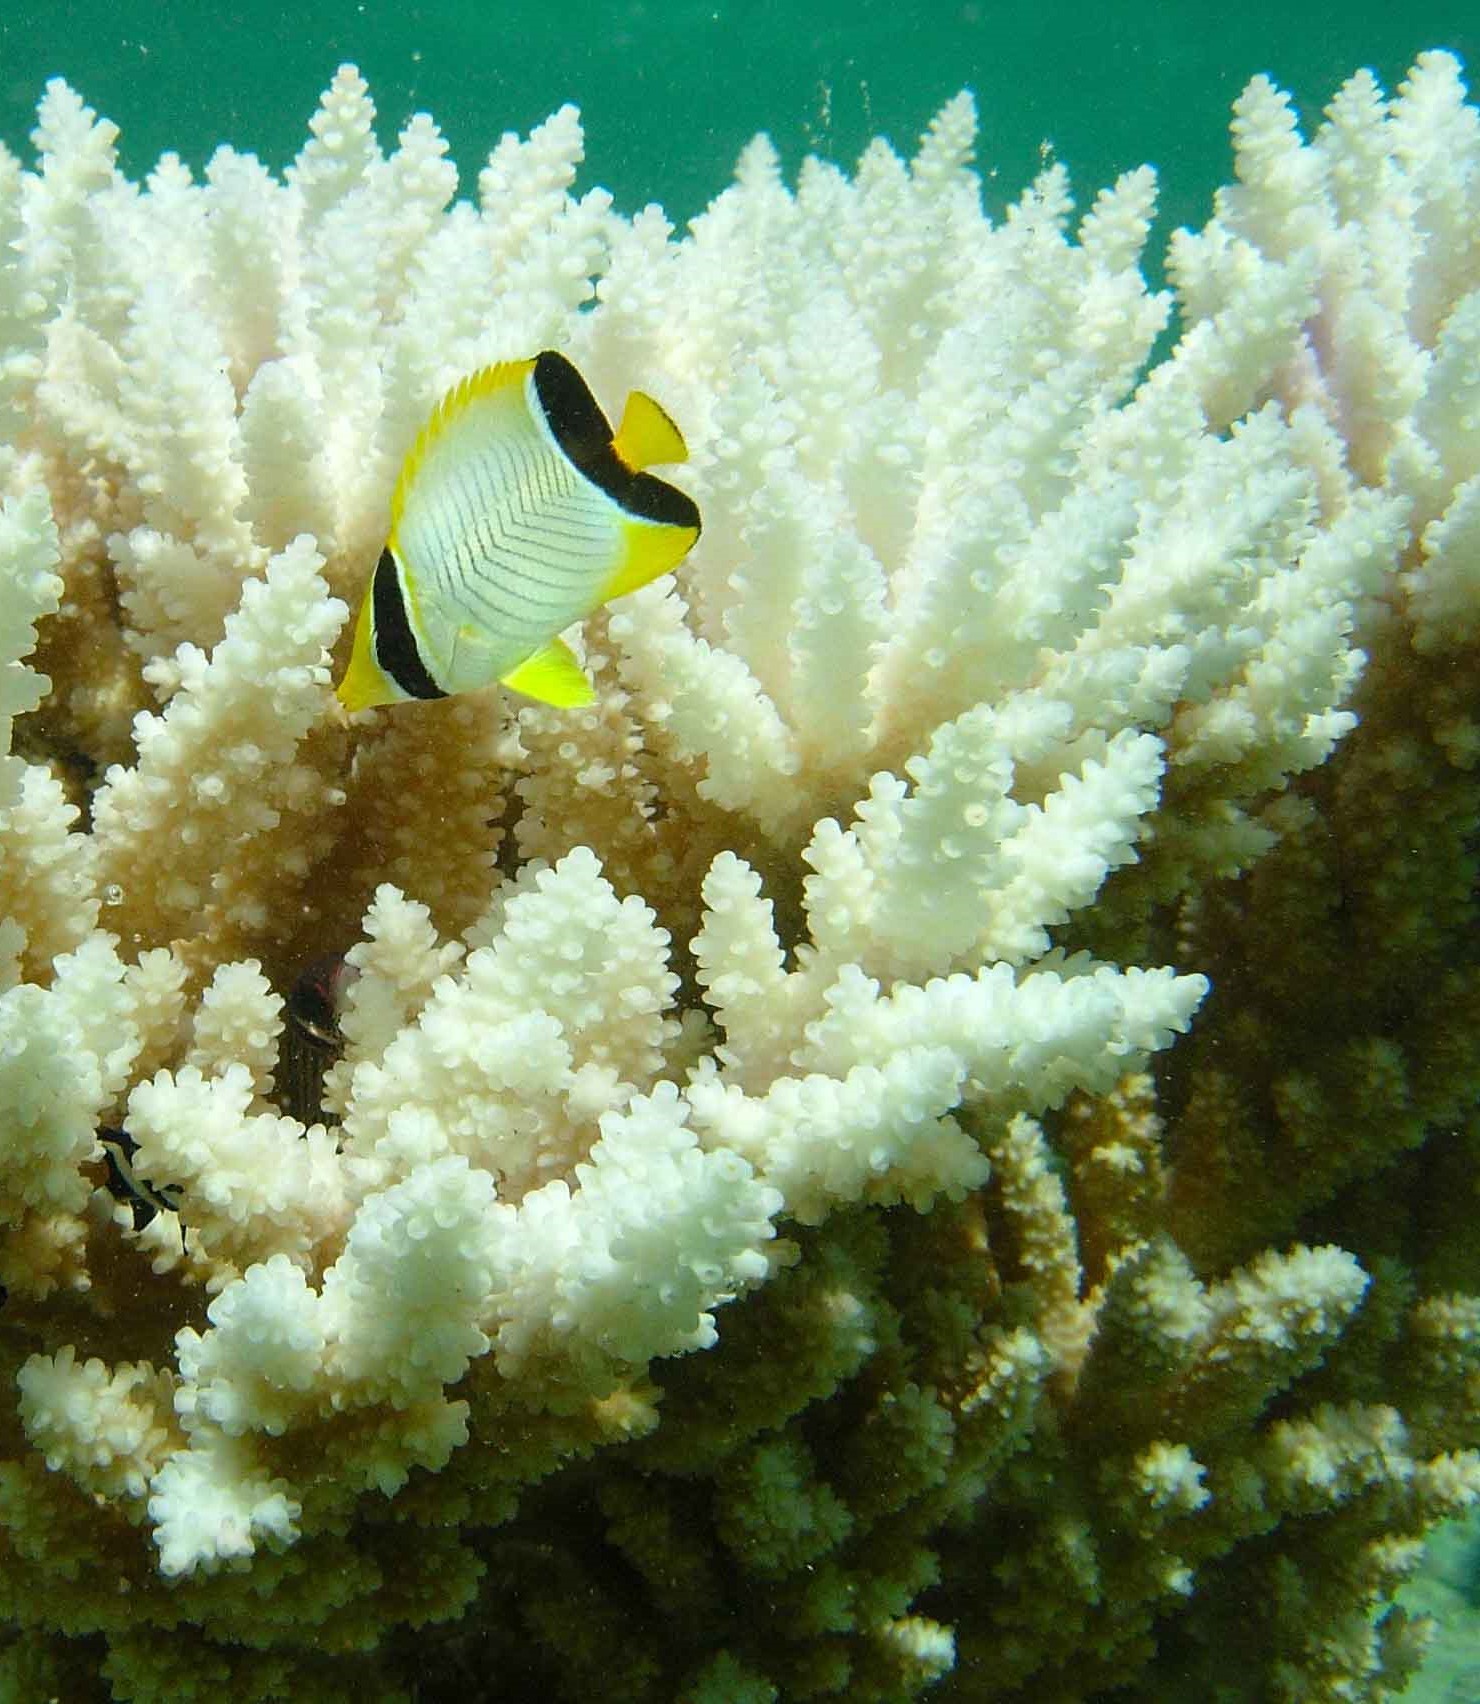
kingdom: Animalia
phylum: Chordata
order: Perciformes
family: Chaetodontidae
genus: Chaetodon
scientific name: Chaetodon trifascialis
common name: Chevroned butterflyfish
